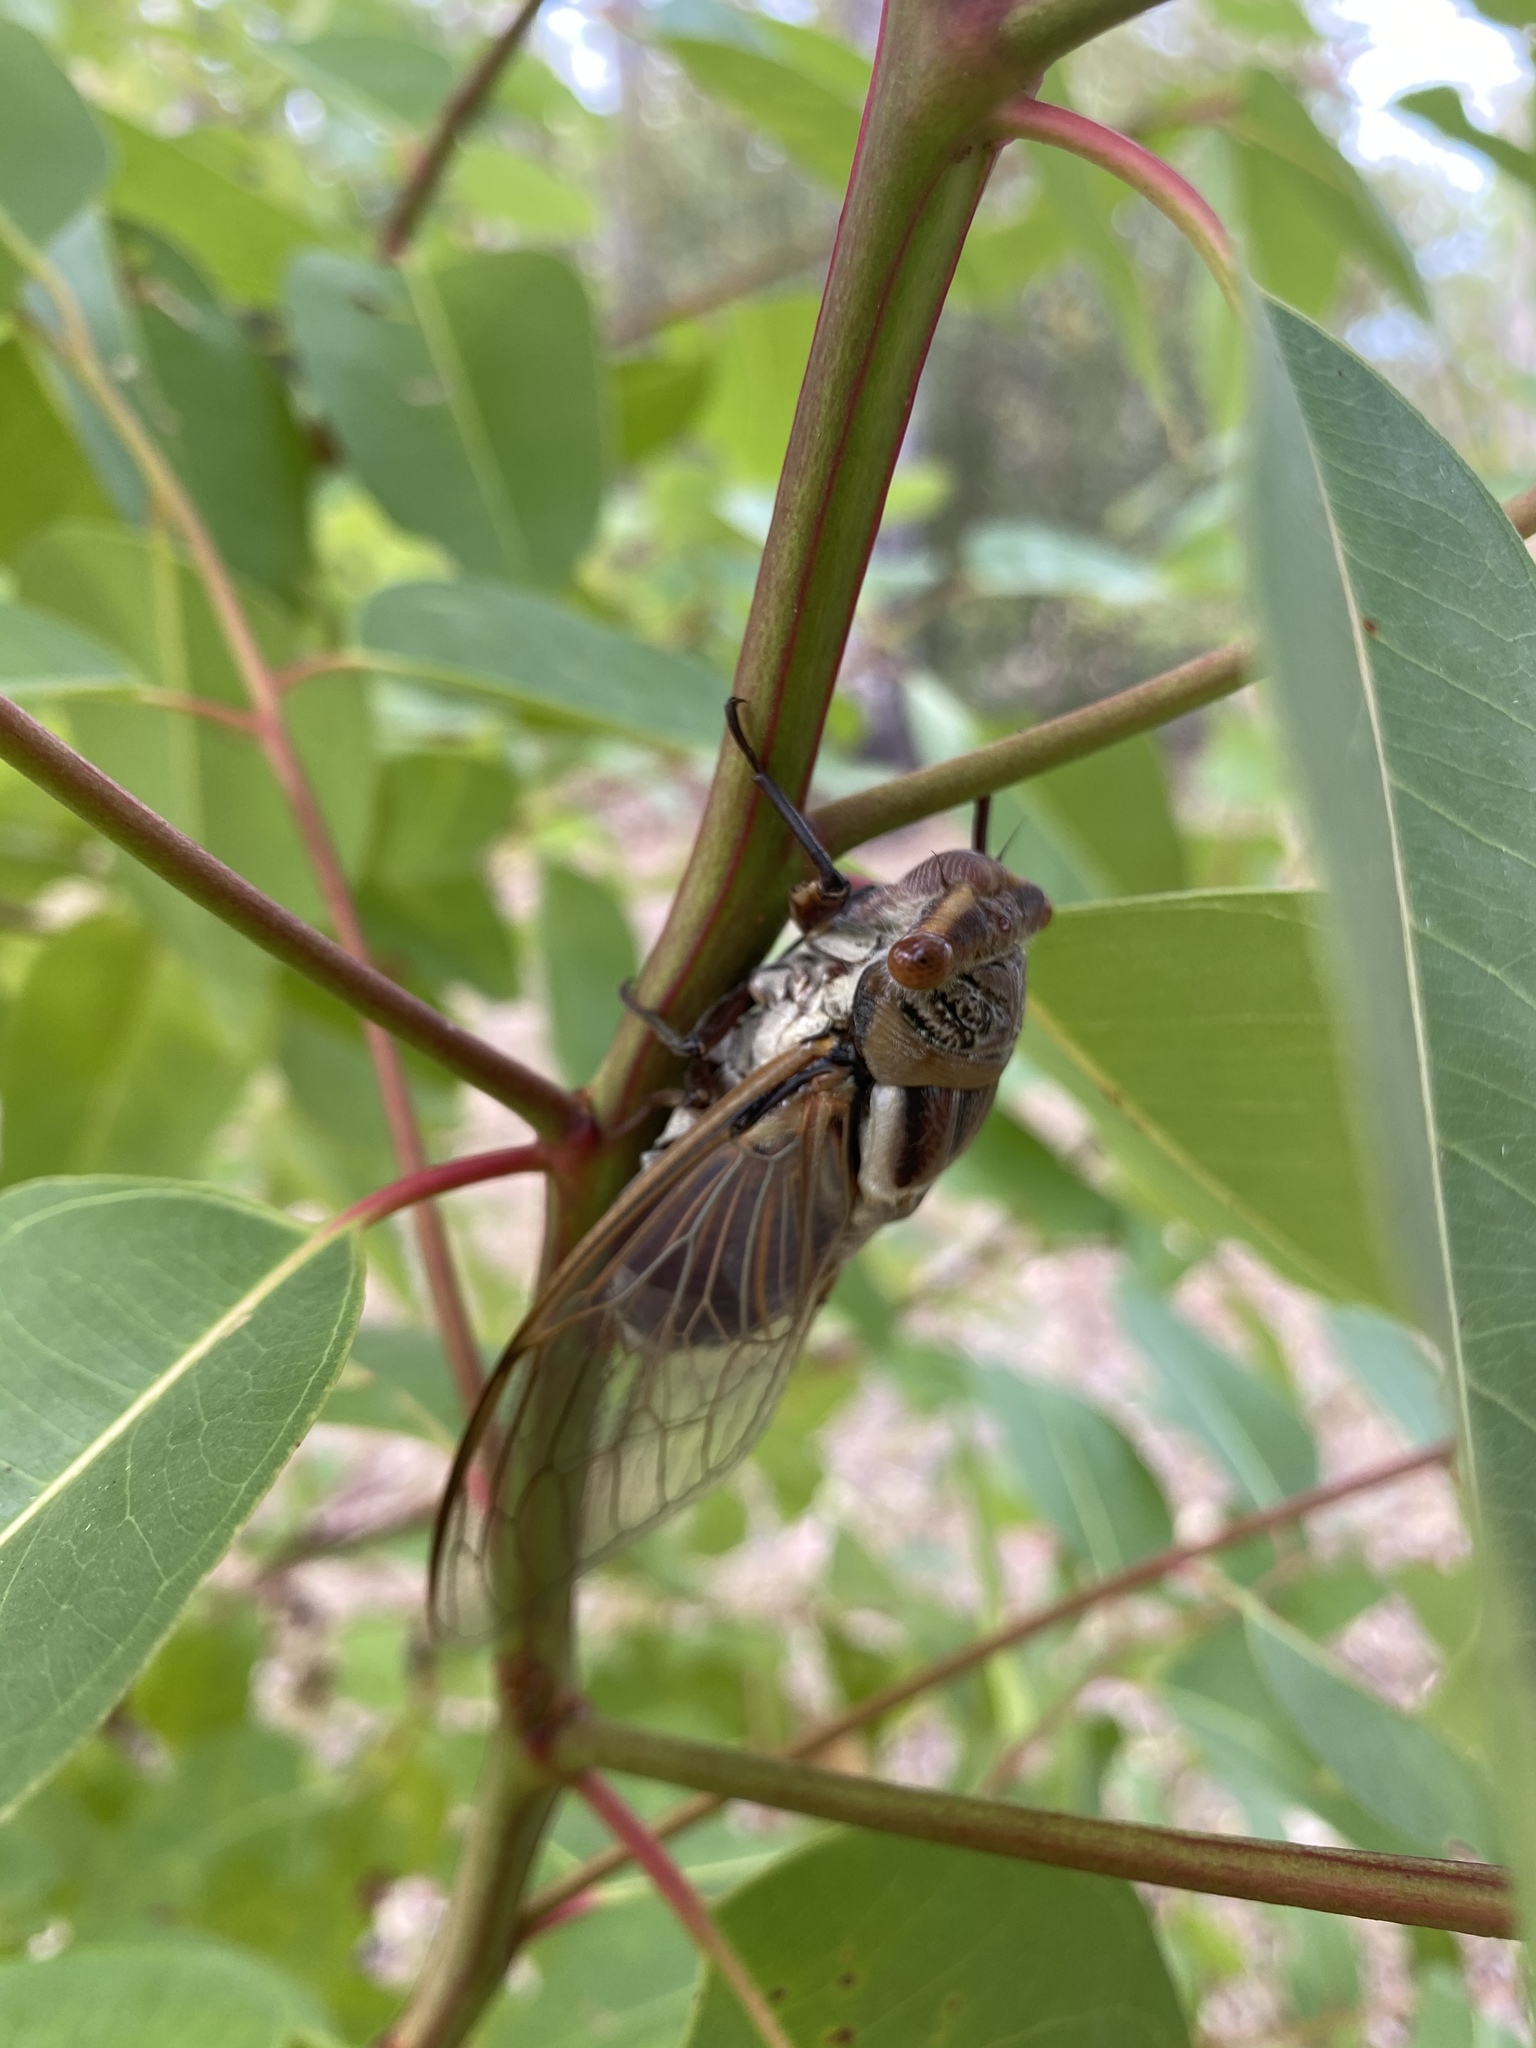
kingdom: Animalia
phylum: Arthropoda
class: Insecta
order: Hemiptera
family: Cicadidae
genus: Thopha
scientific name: Thopha sessiliba
